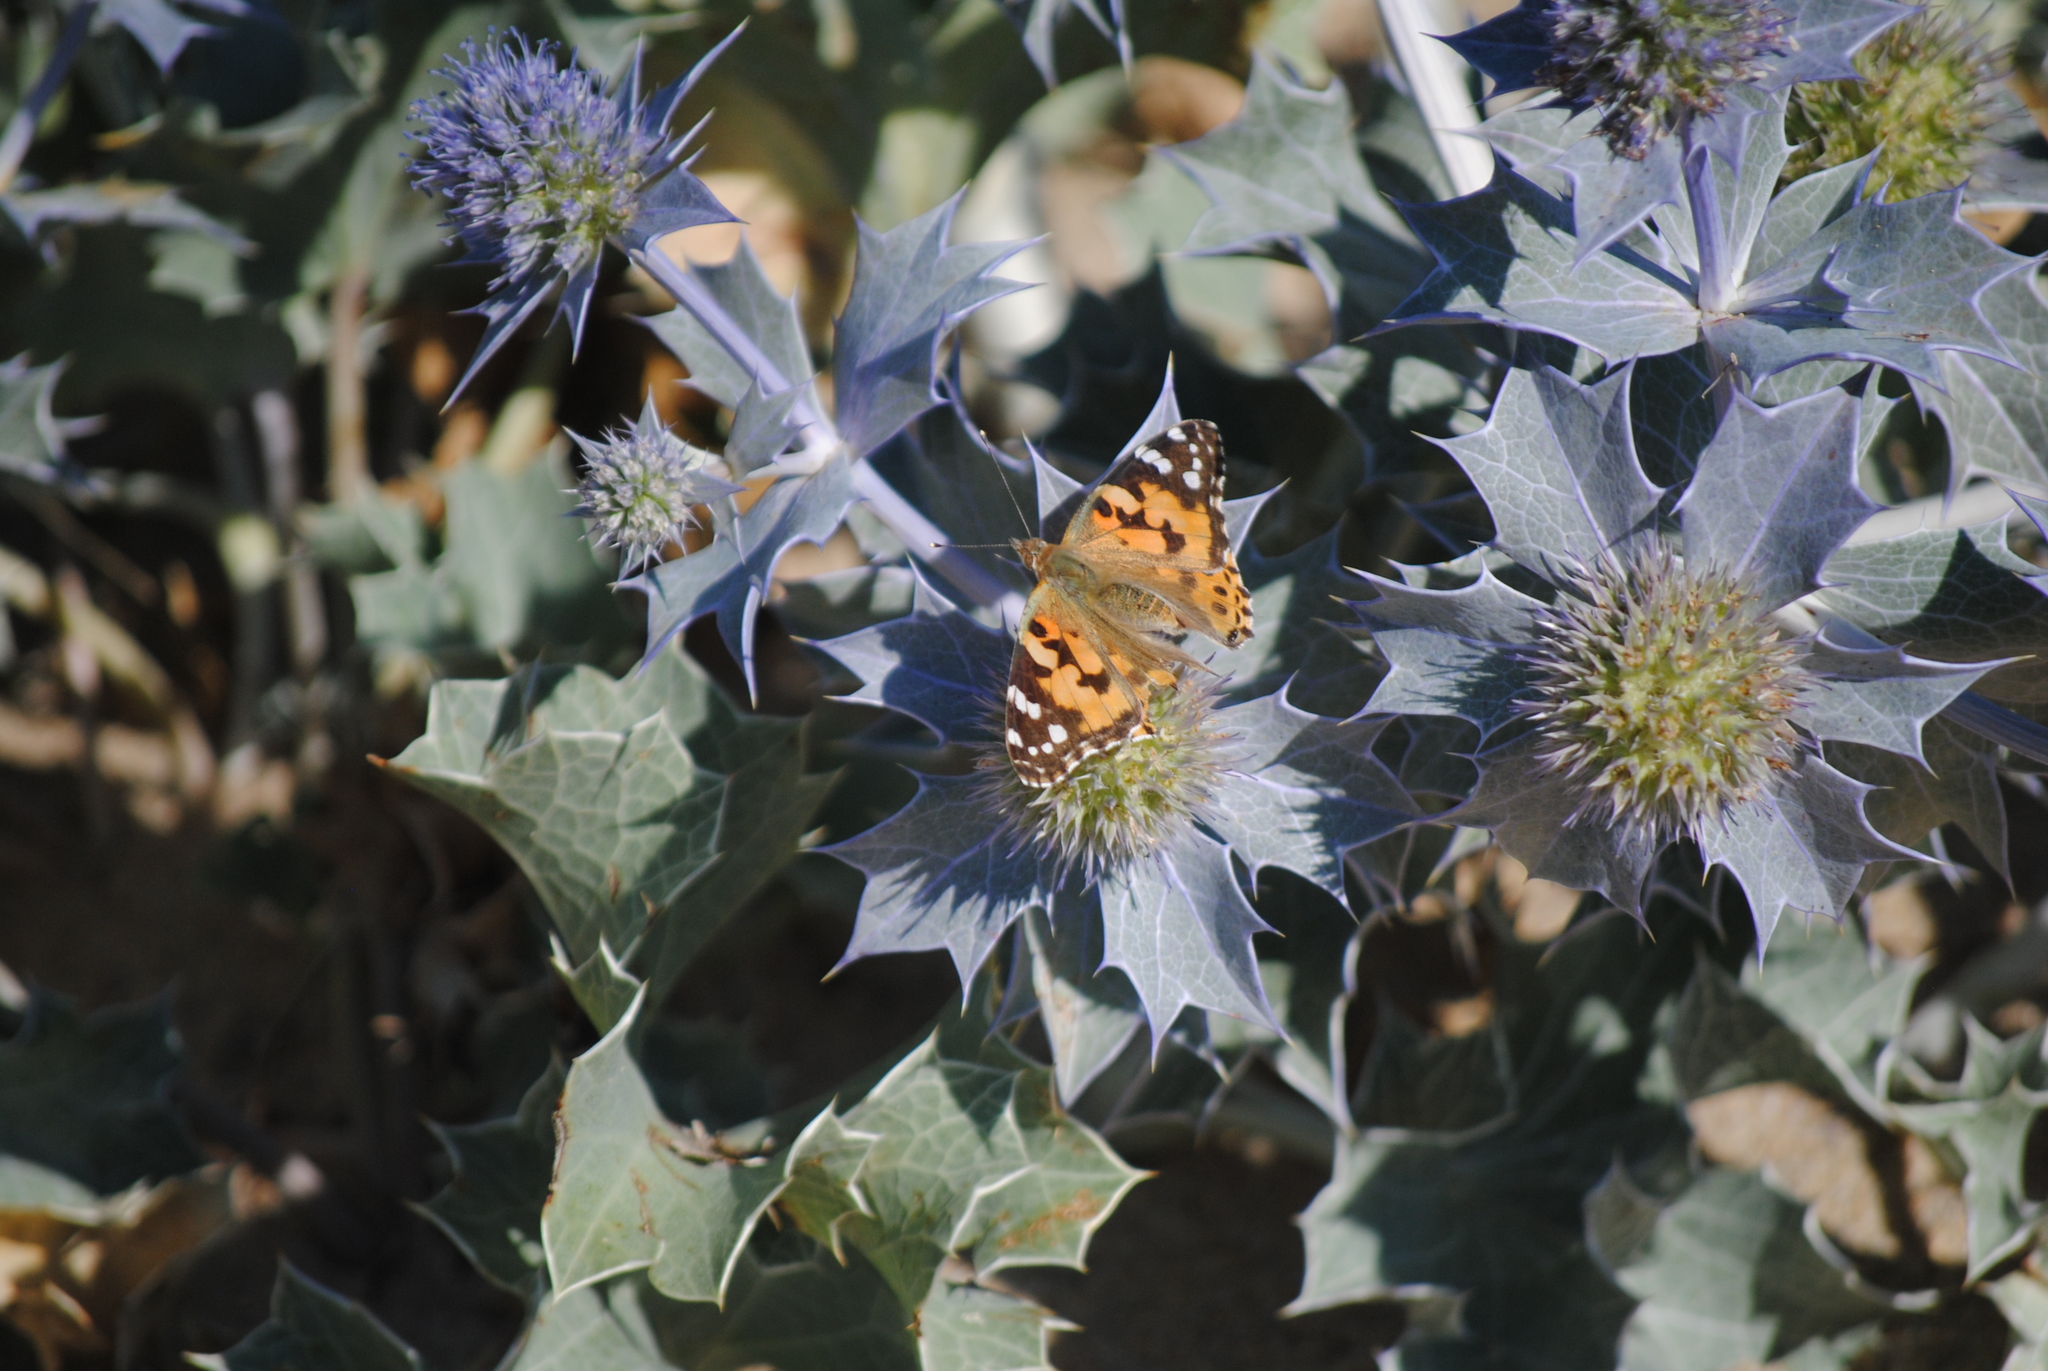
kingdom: Animalia
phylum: Arthropoda
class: Insecta
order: Lepidoptera
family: Nymphalidae
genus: Vanessa
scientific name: Vanessa cardui
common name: Painted lady
